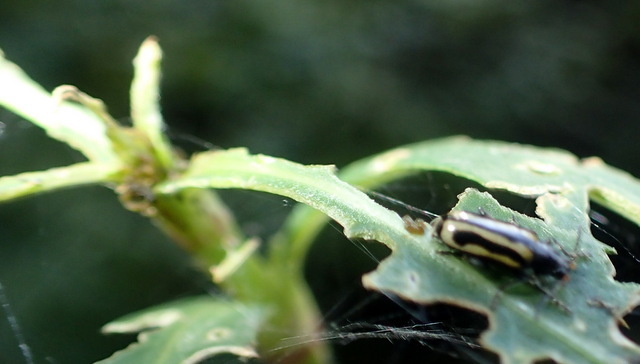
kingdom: Animalia
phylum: Arthropoda
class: Insecta
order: Coleoptera
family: Chrysomelidae
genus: Agasicles
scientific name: Agasicles hygrophila
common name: Alligatorweed flea beetle
